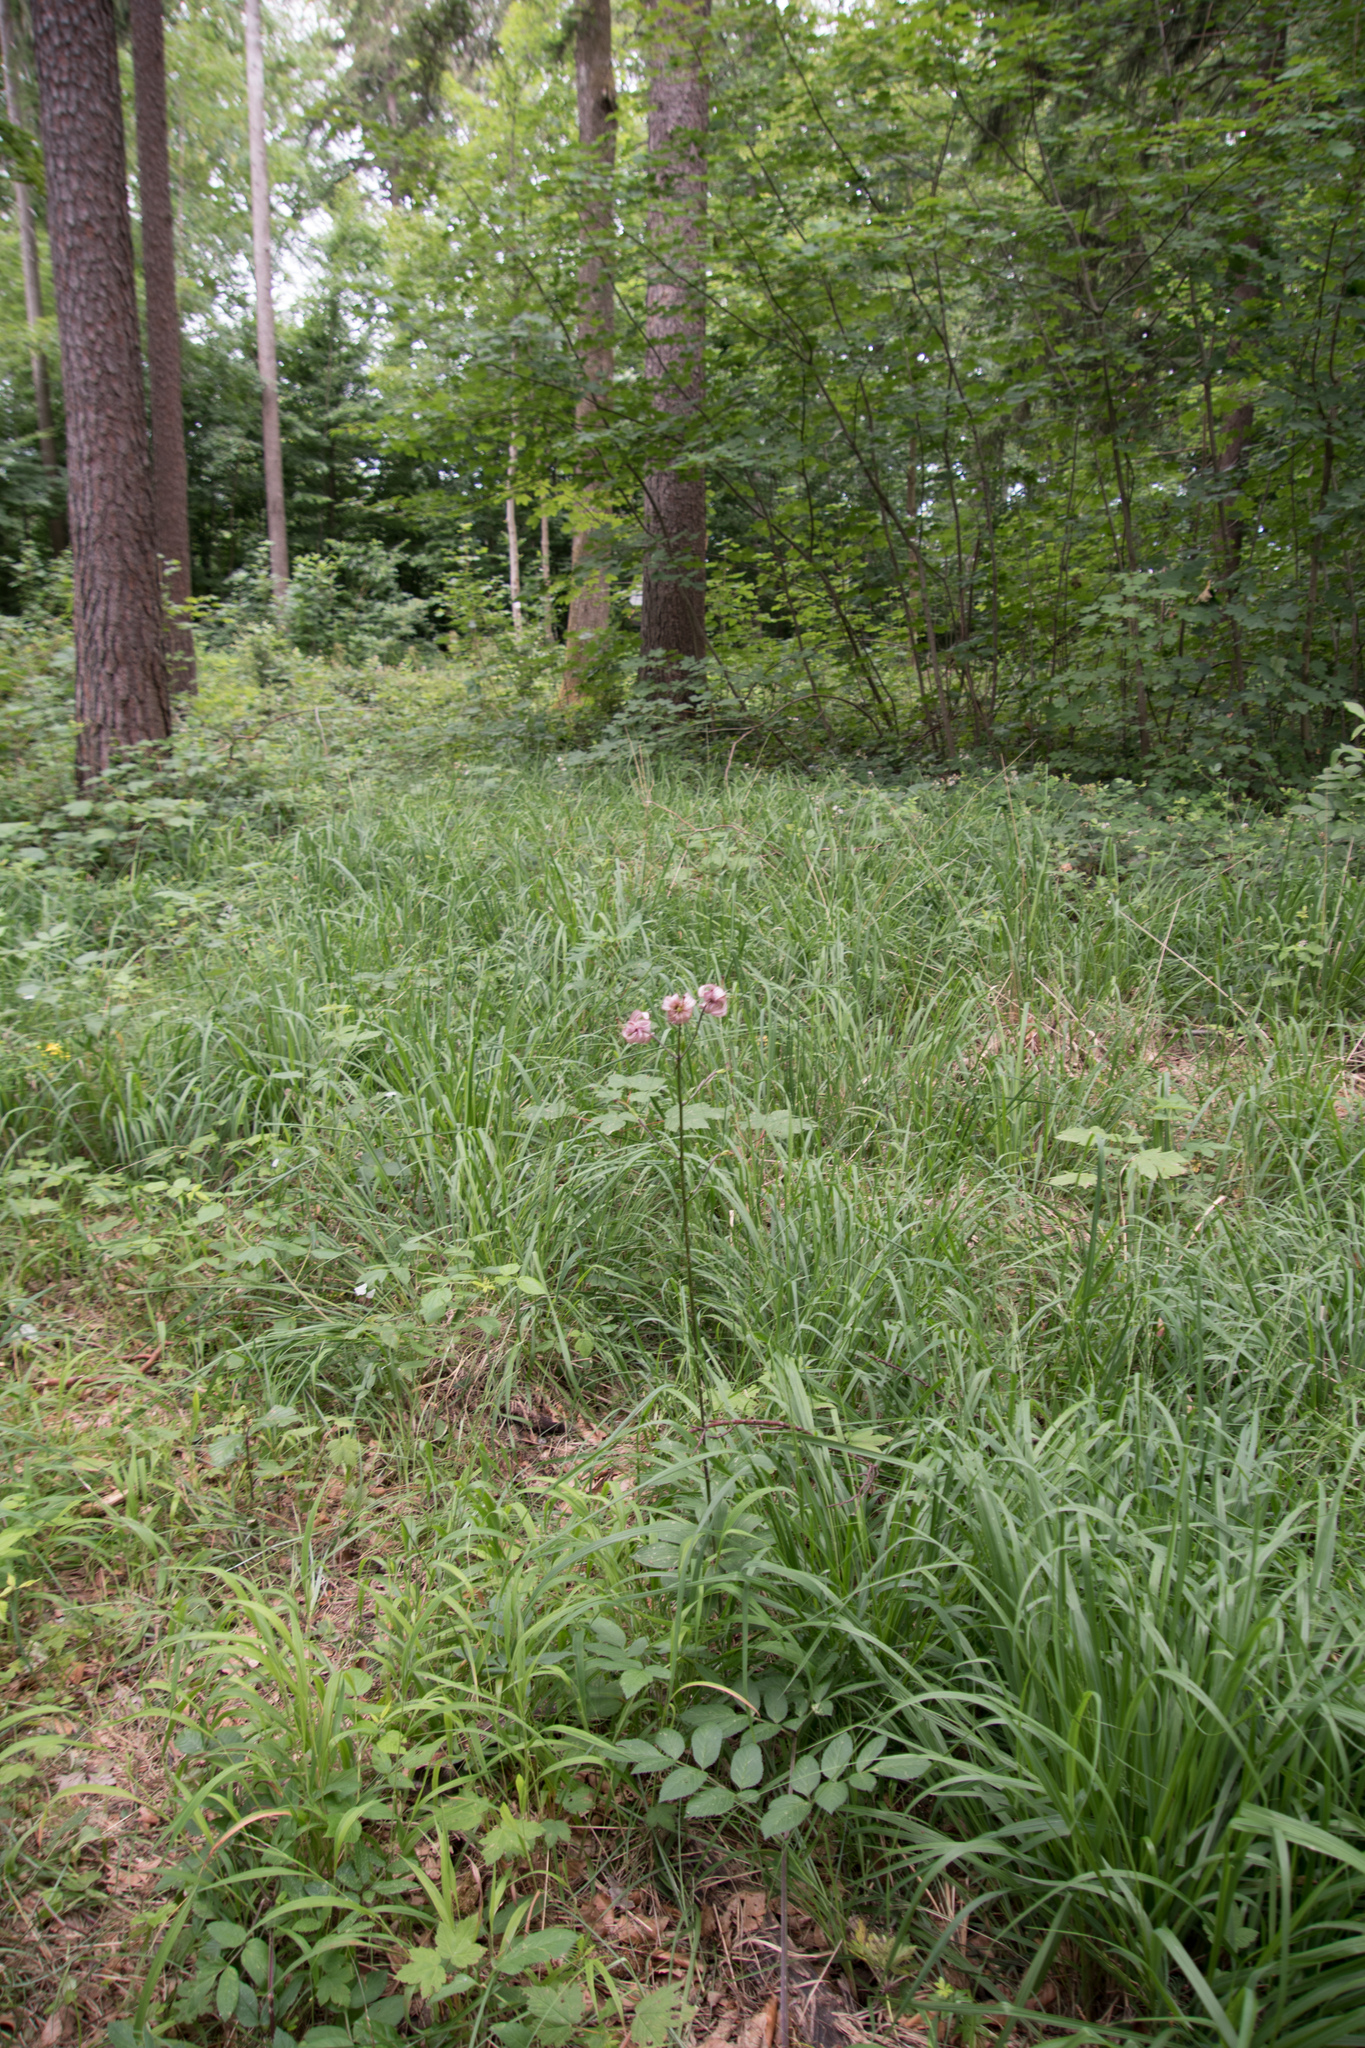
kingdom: Plantae
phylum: Tracheophyta
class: Liliopsida
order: Liliales
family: Liliaceae
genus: Lilium
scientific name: Lilium martagon
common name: Martagon lily
